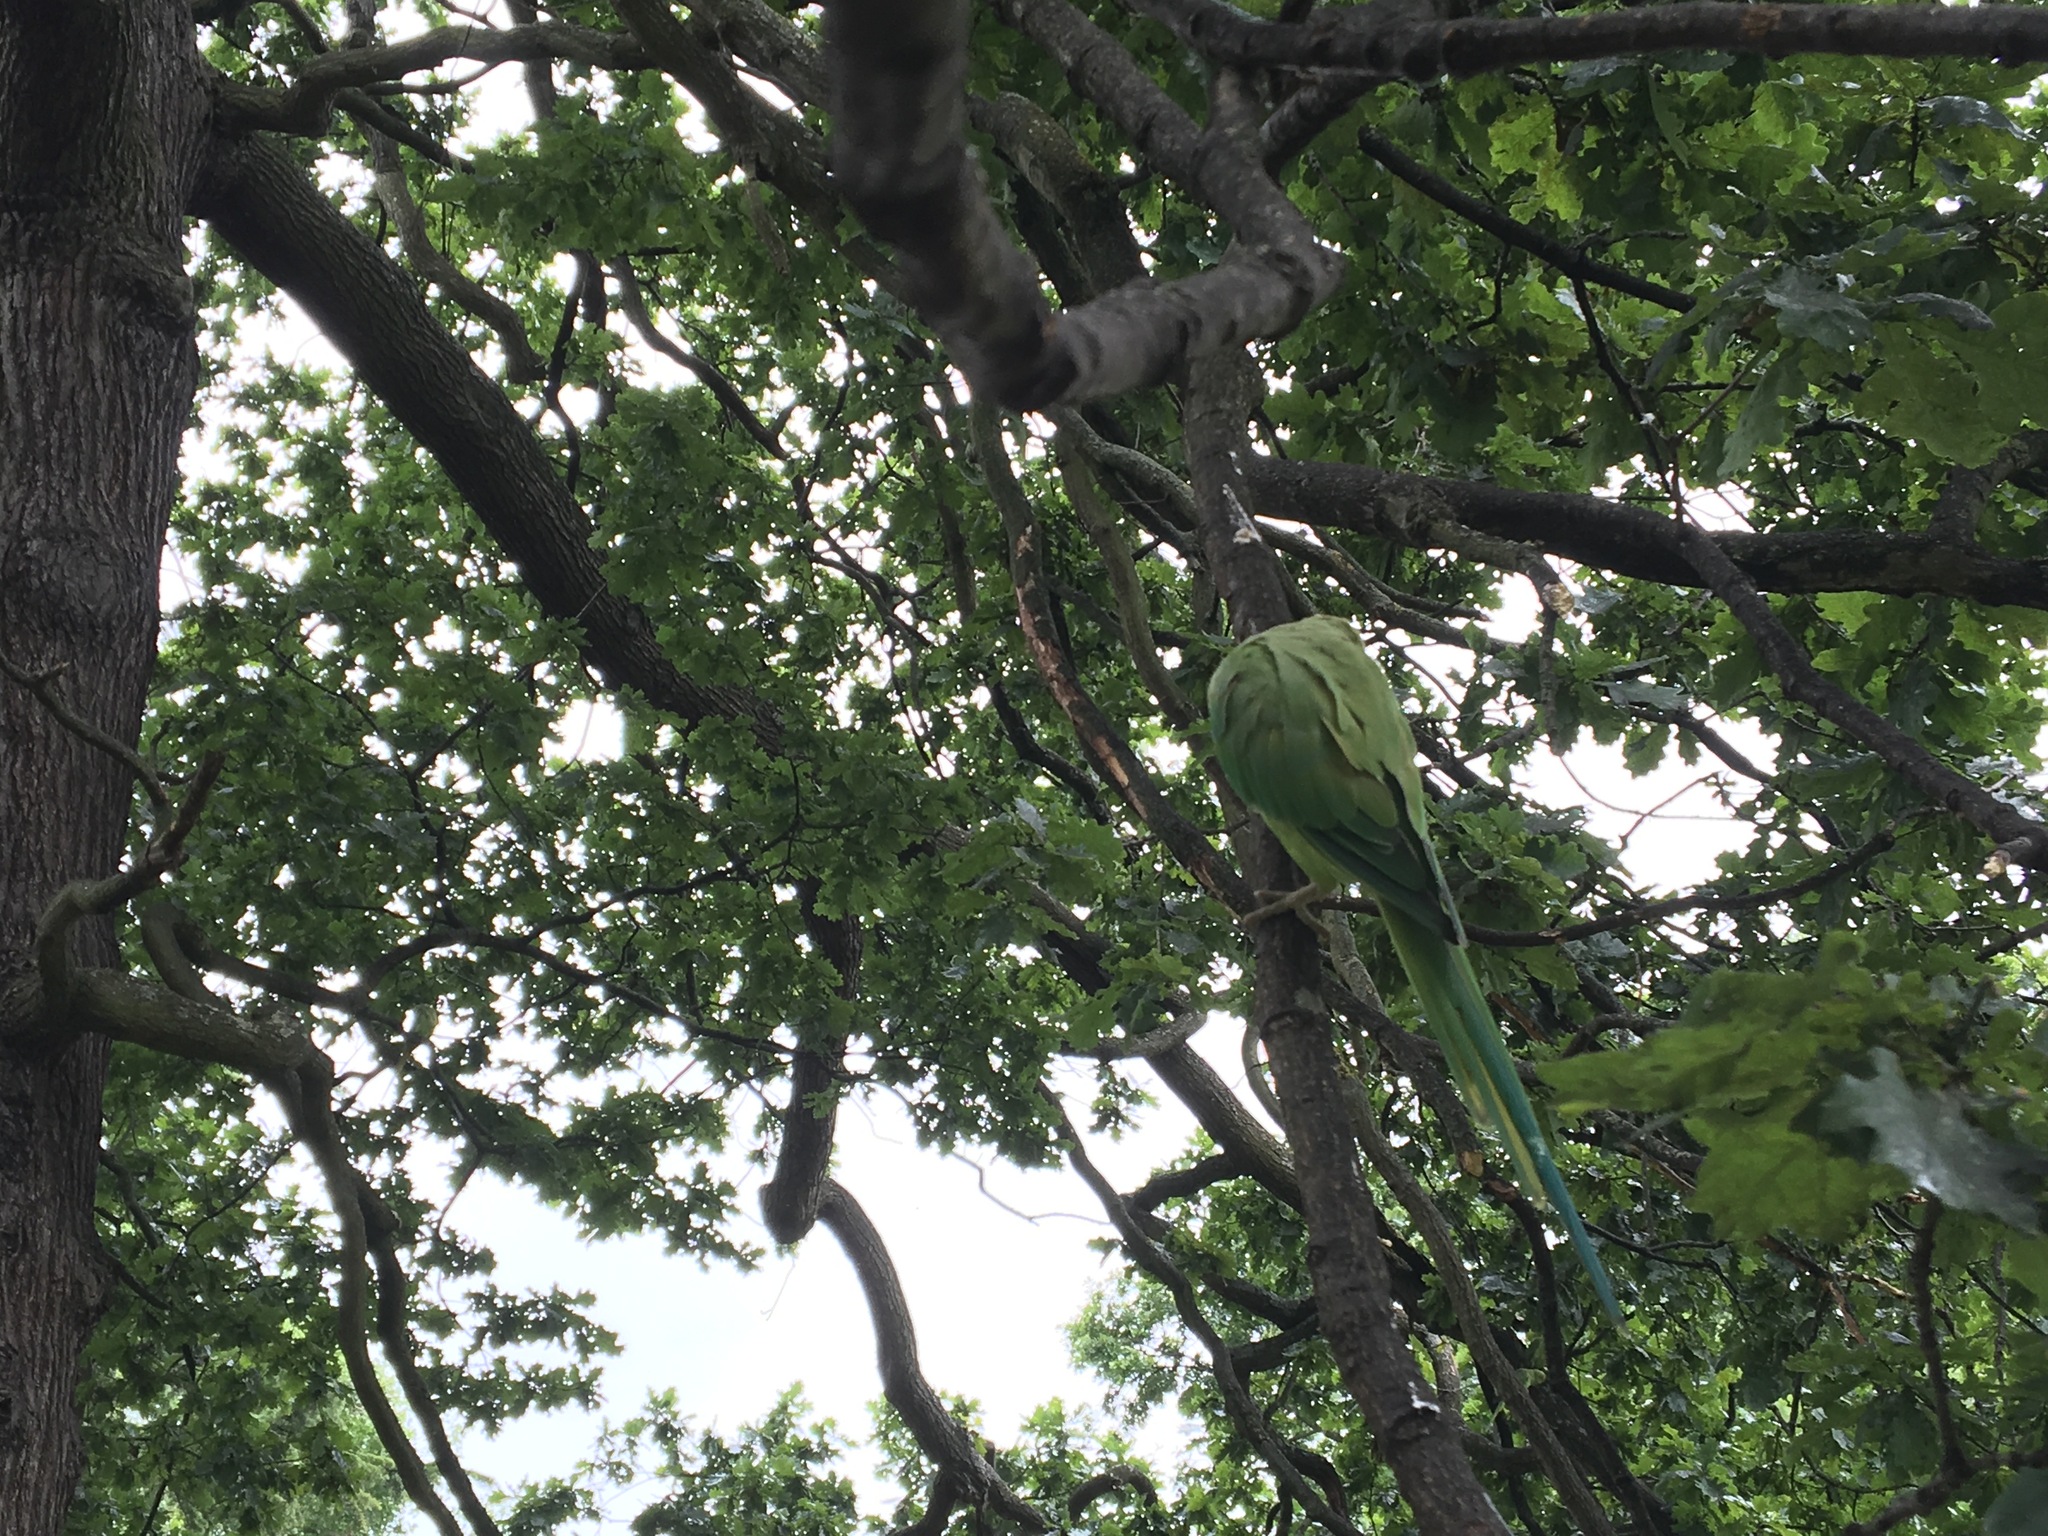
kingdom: Animalia
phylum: Chordata
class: Aves
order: Psittaciformes
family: Psittacidae
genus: Psittacula
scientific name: Psittacula krameri
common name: Rose-ringed parakeet
